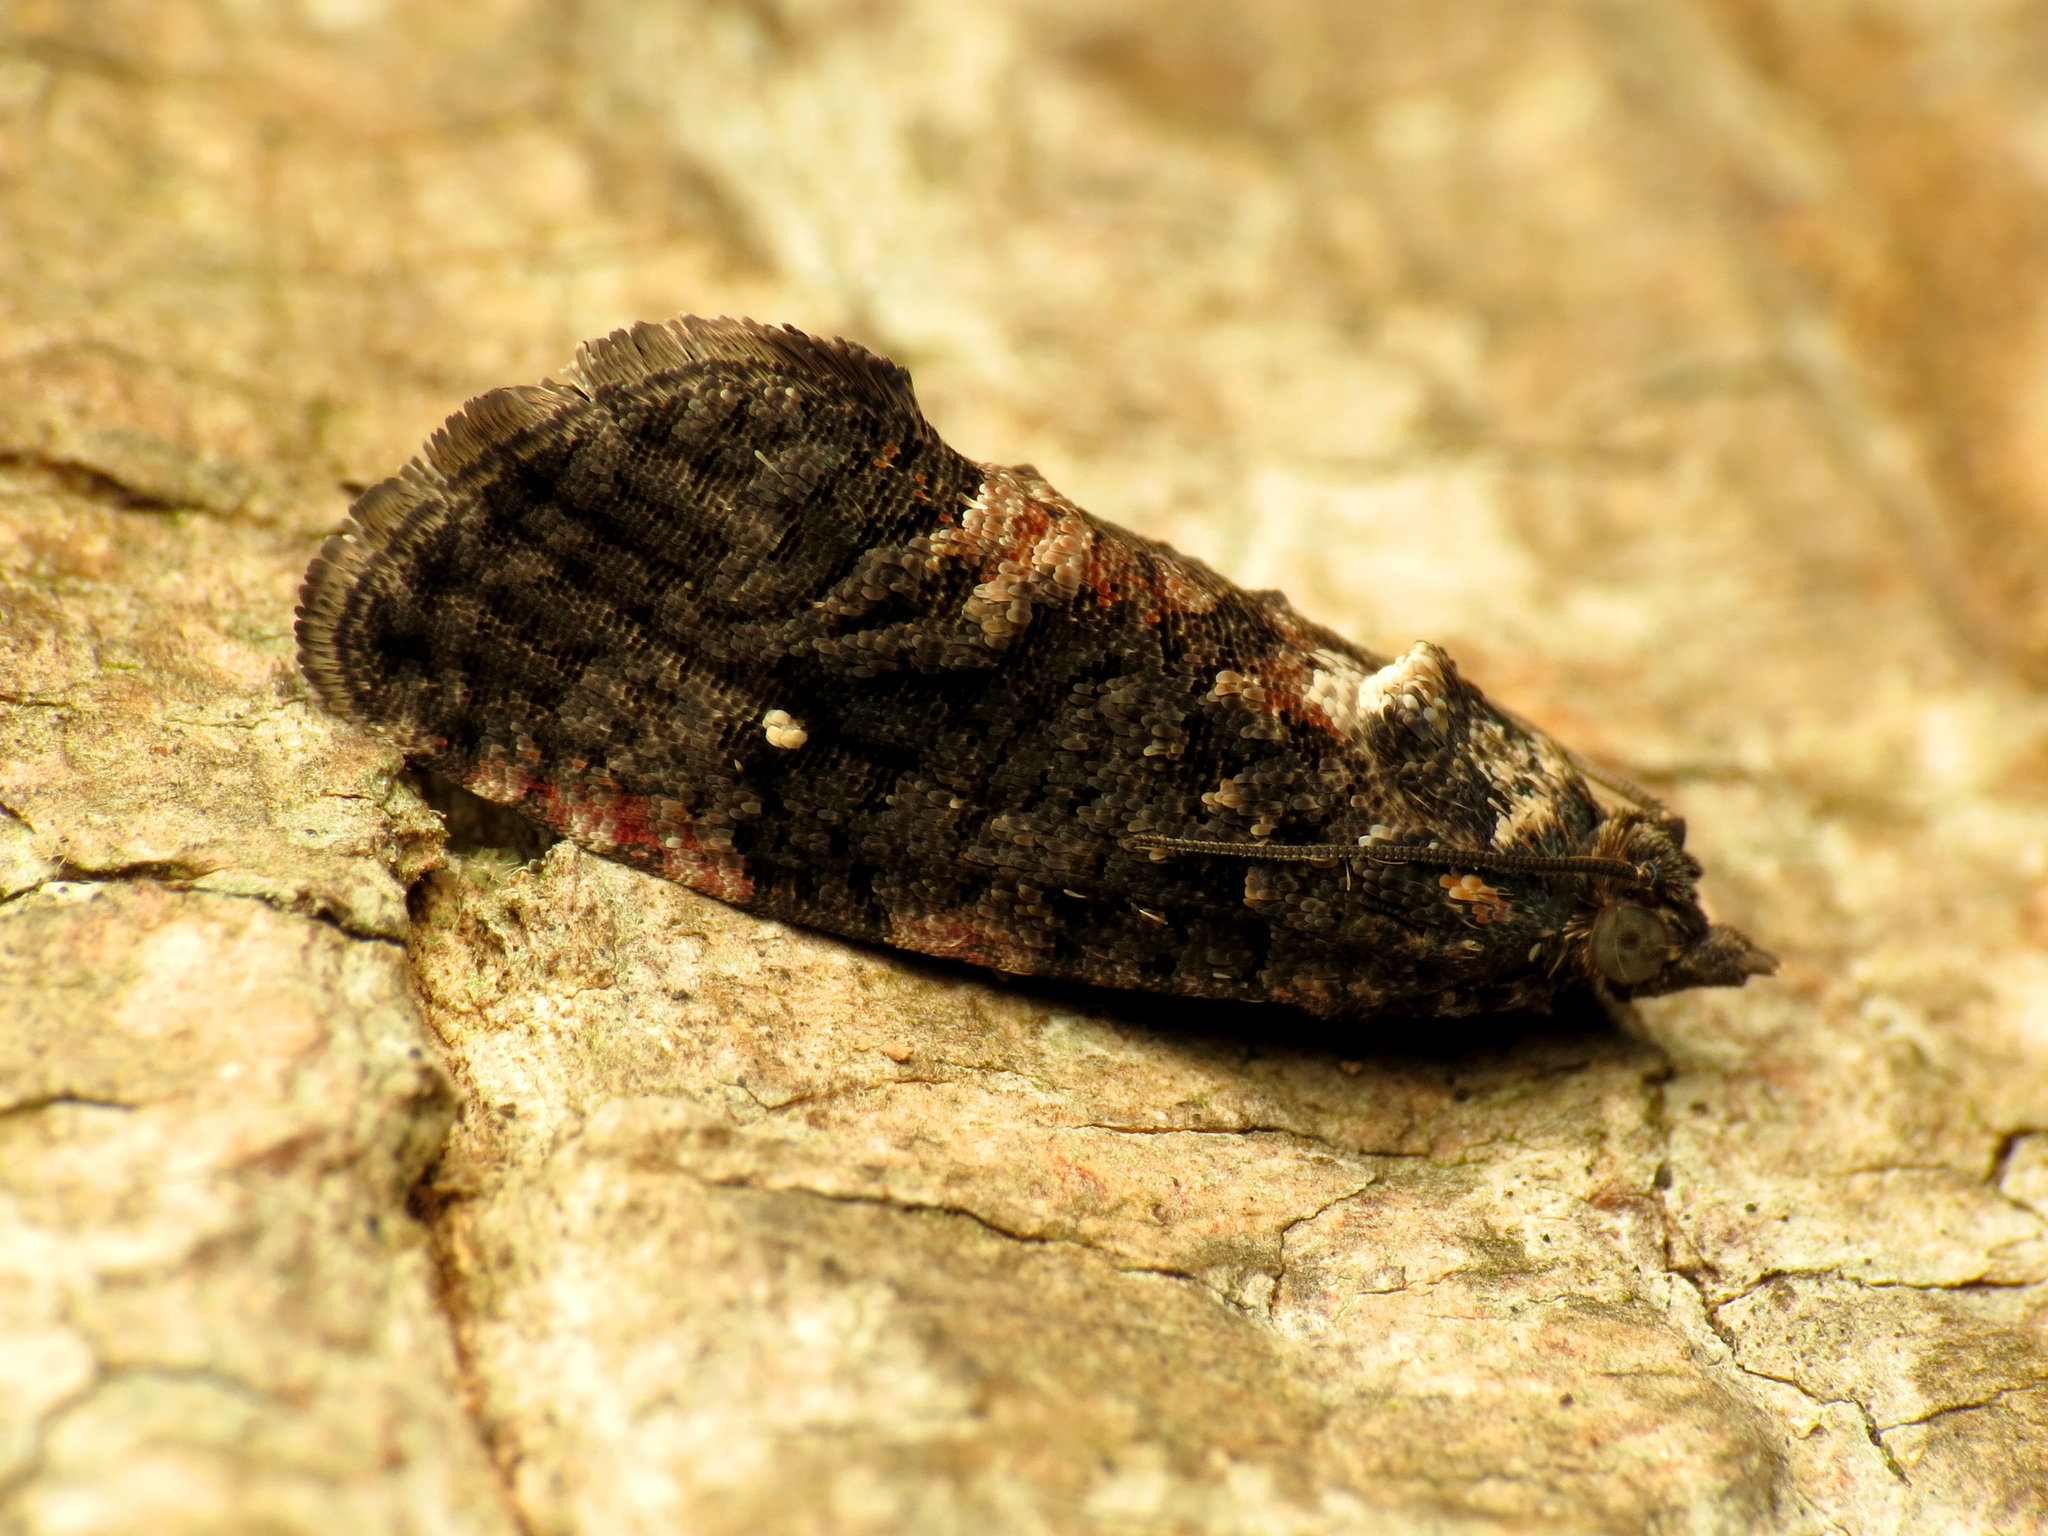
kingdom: Animalia
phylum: Arthropoda
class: Insecta
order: Lepidoptera
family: Tortricidae
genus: Gymnandrosoma
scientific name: Gymnandrosoma punctidiscanum
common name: Dotted ecdytolopha moth
